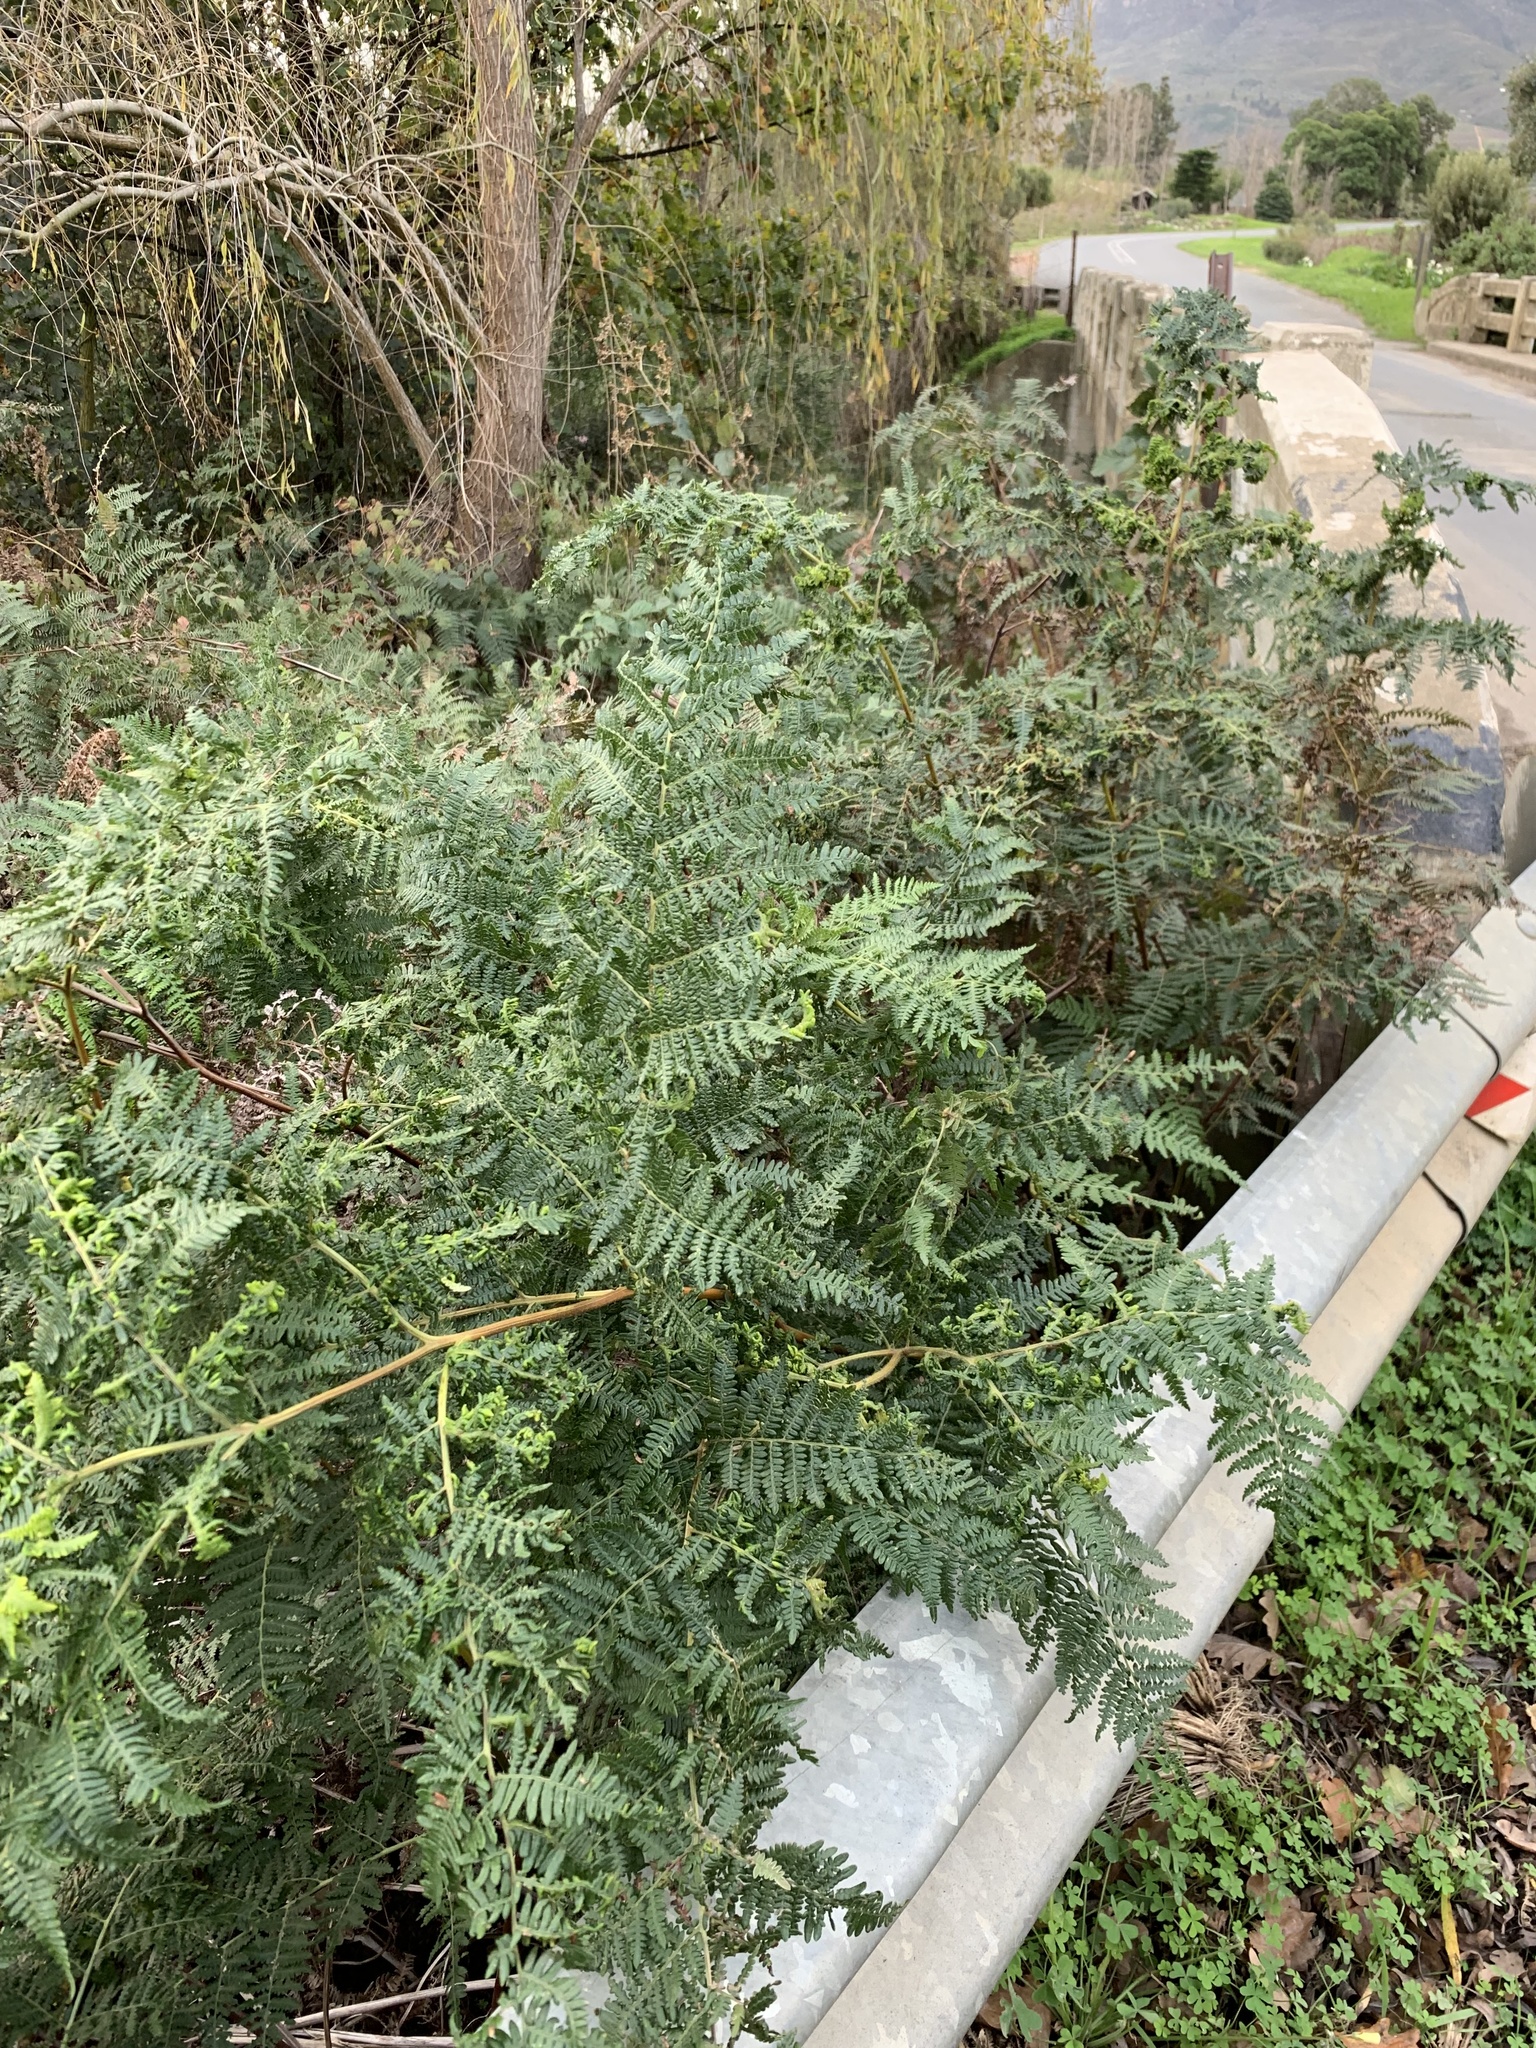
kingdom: Plantae
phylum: Tracheophyta
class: Polypodiopsida
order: Polypodiales
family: Dennstaedtiaceae
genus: Pteridium
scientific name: Pteridium aquilinum
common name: Bracken
